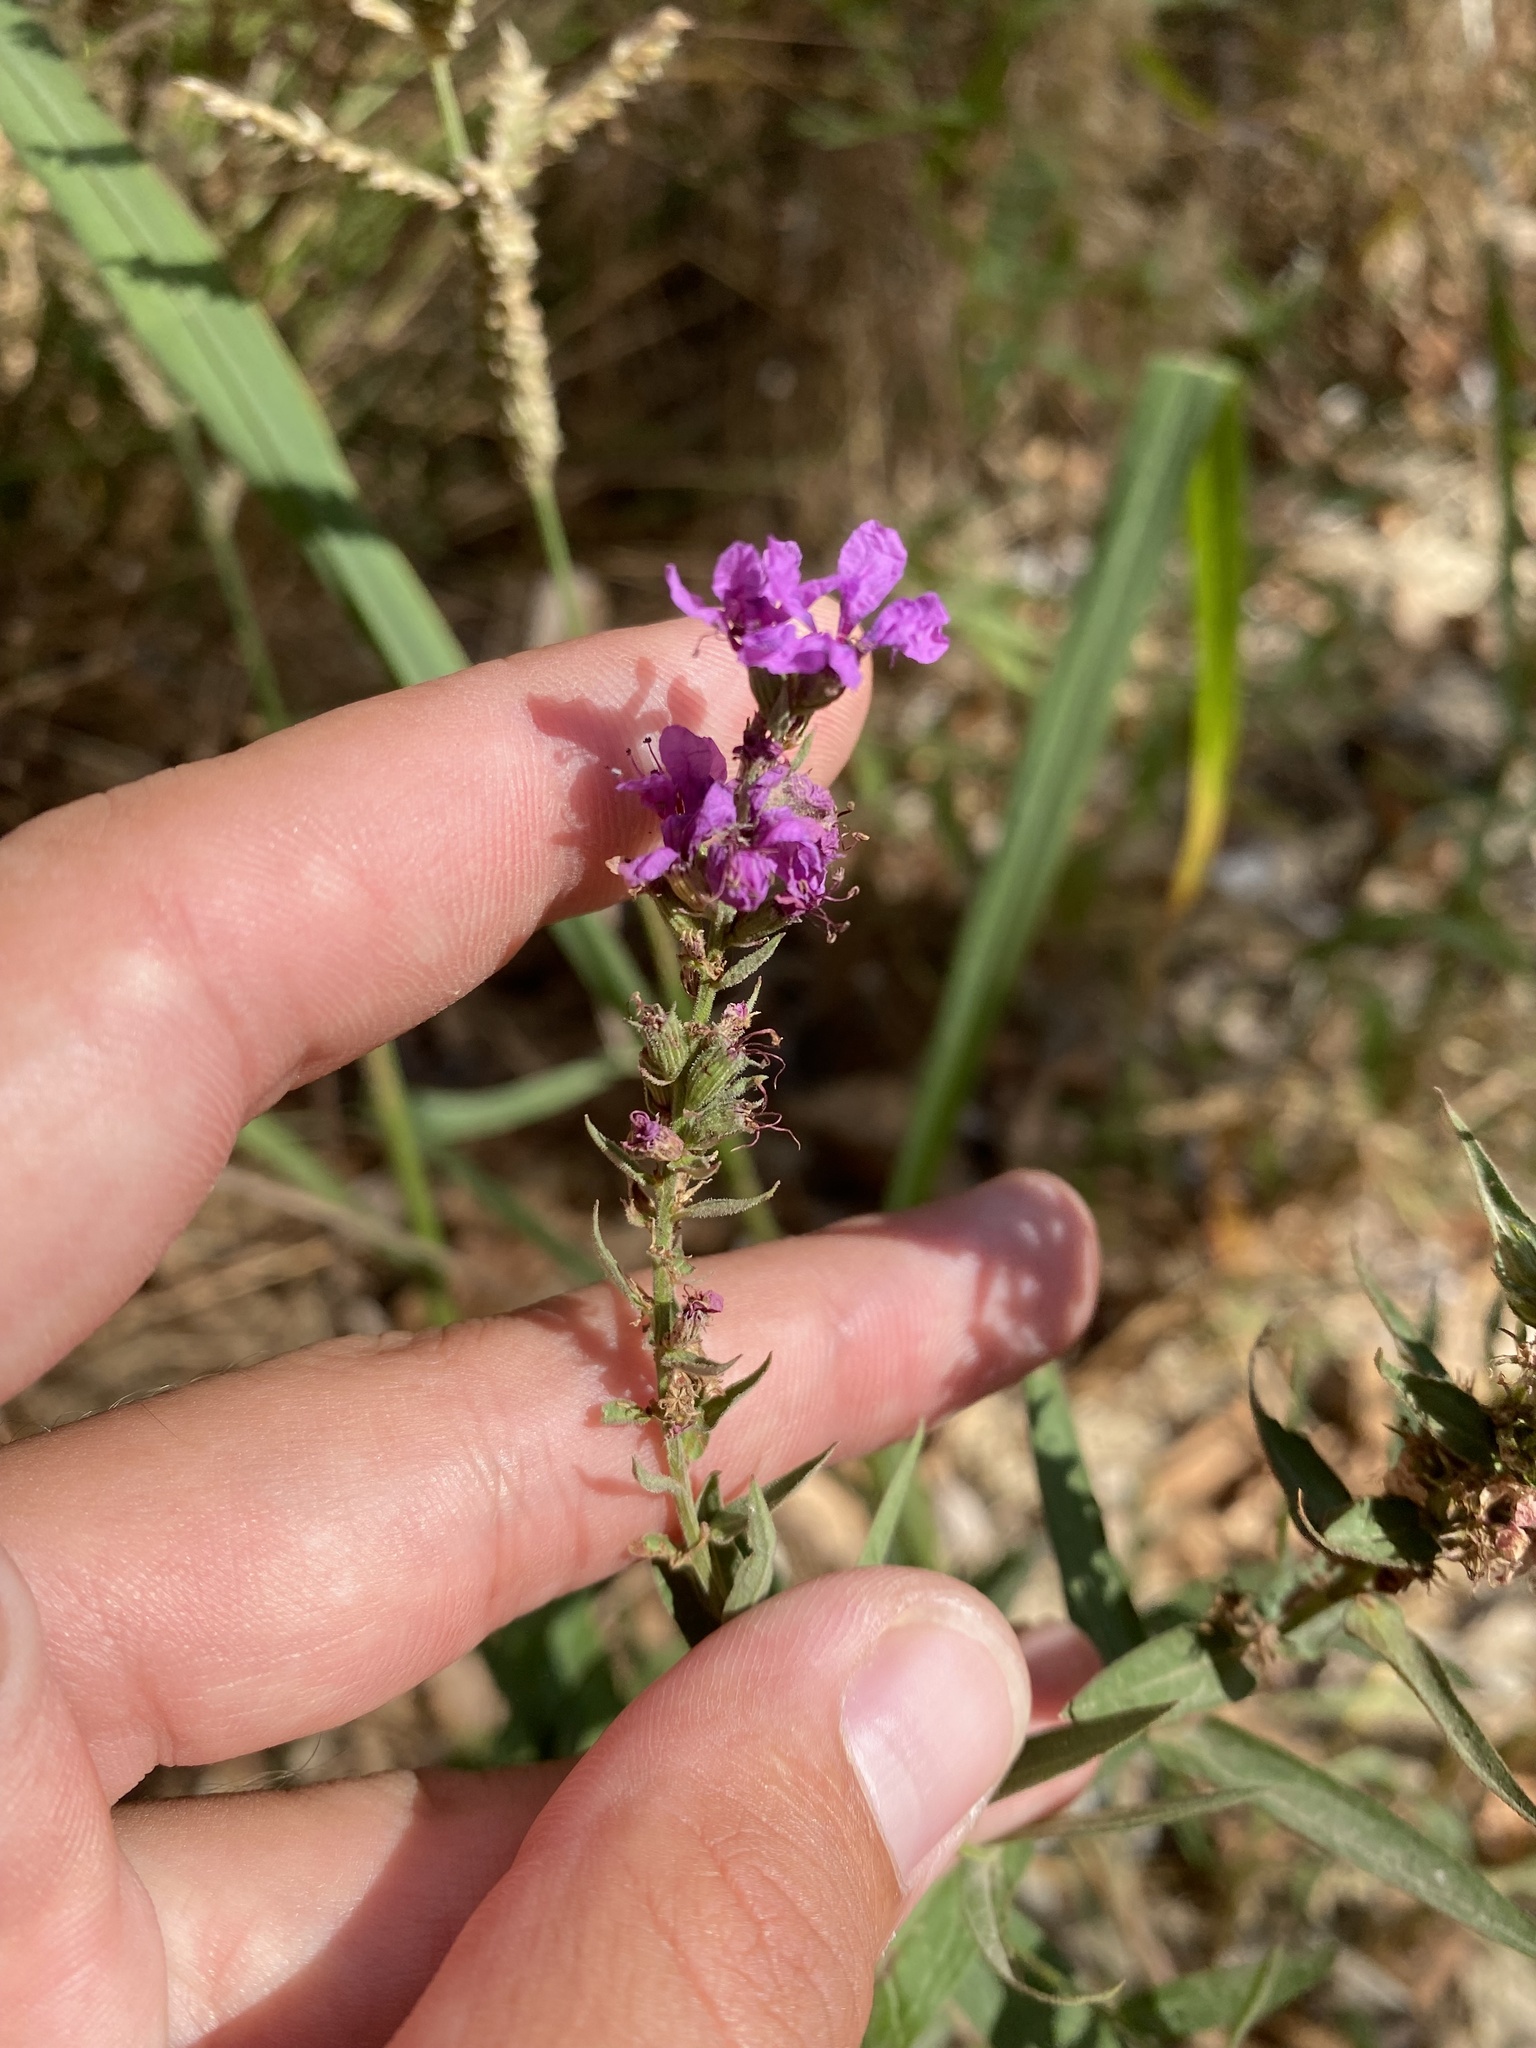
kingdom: Plantae
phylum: Tracheophyta
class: Magnoliopsida
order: Myrtales
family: Lythraceae
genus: Lythrum
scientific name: Lythrum salicaria
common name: Purple loosestrife
